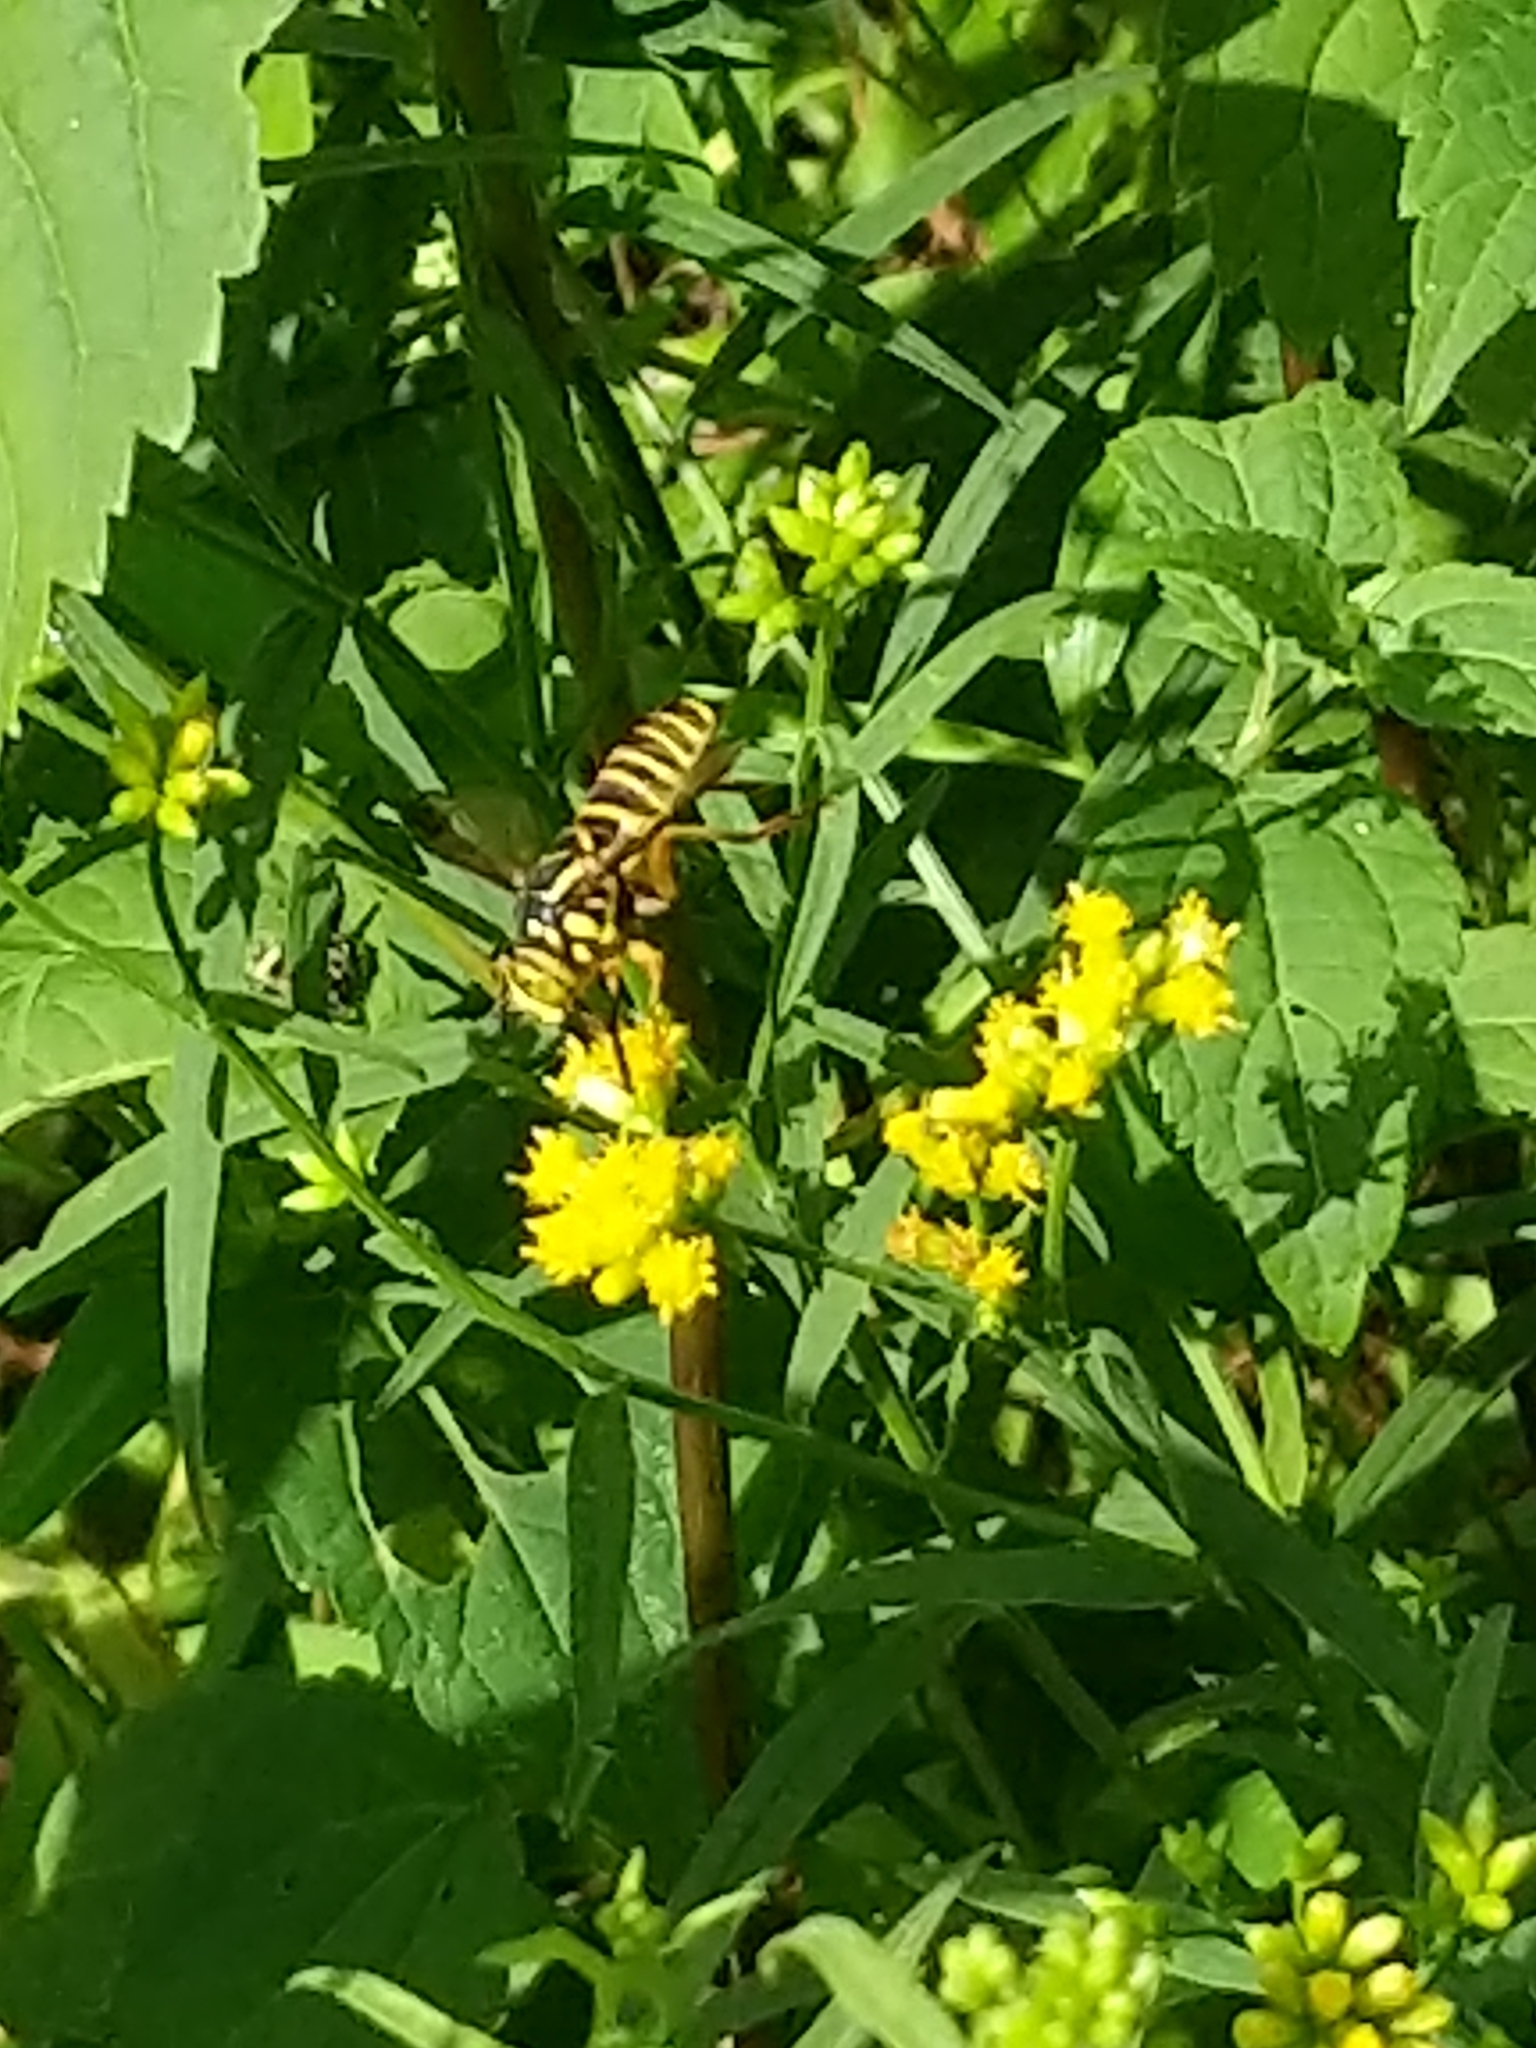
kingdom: Animalia
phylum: Arthropoda
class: Insecta
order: Diptera
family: Syrphidae
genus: Spilomyia
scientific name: Spilomyia longicornis
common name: Eastern hornet fly
